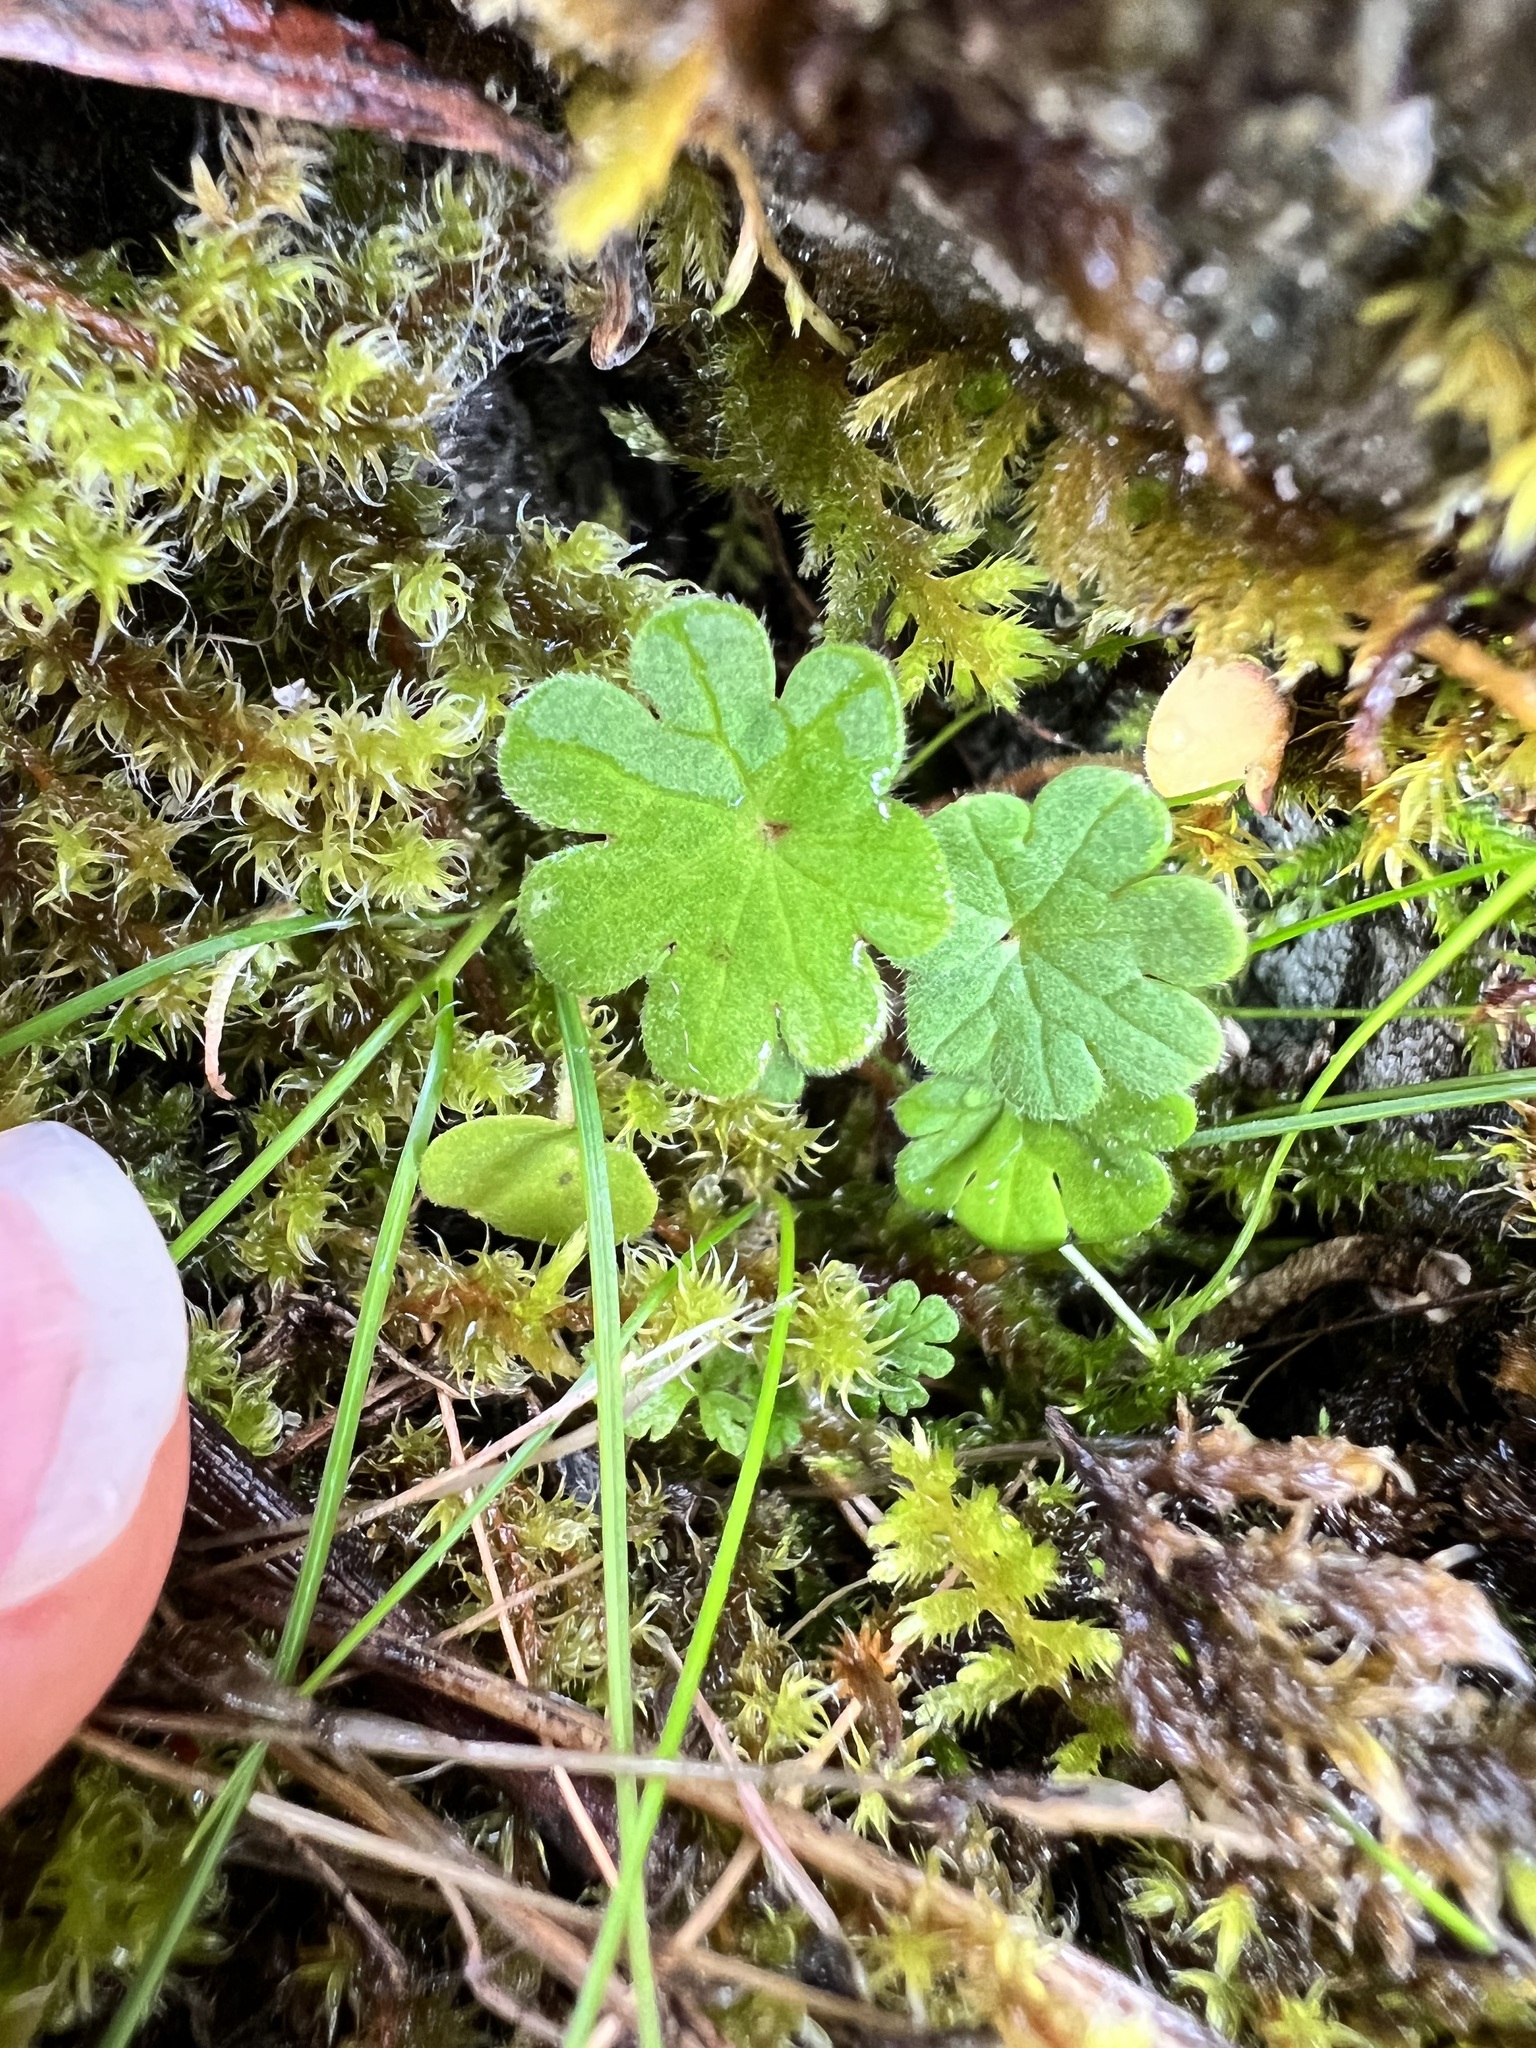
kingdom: Plantae
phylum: Tracheophyta
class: Magnoliopsida
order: Geraniales
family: Geraniaceae
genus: Geranium
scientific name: Geranium molle
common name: Dove's-foot crane's-bill
